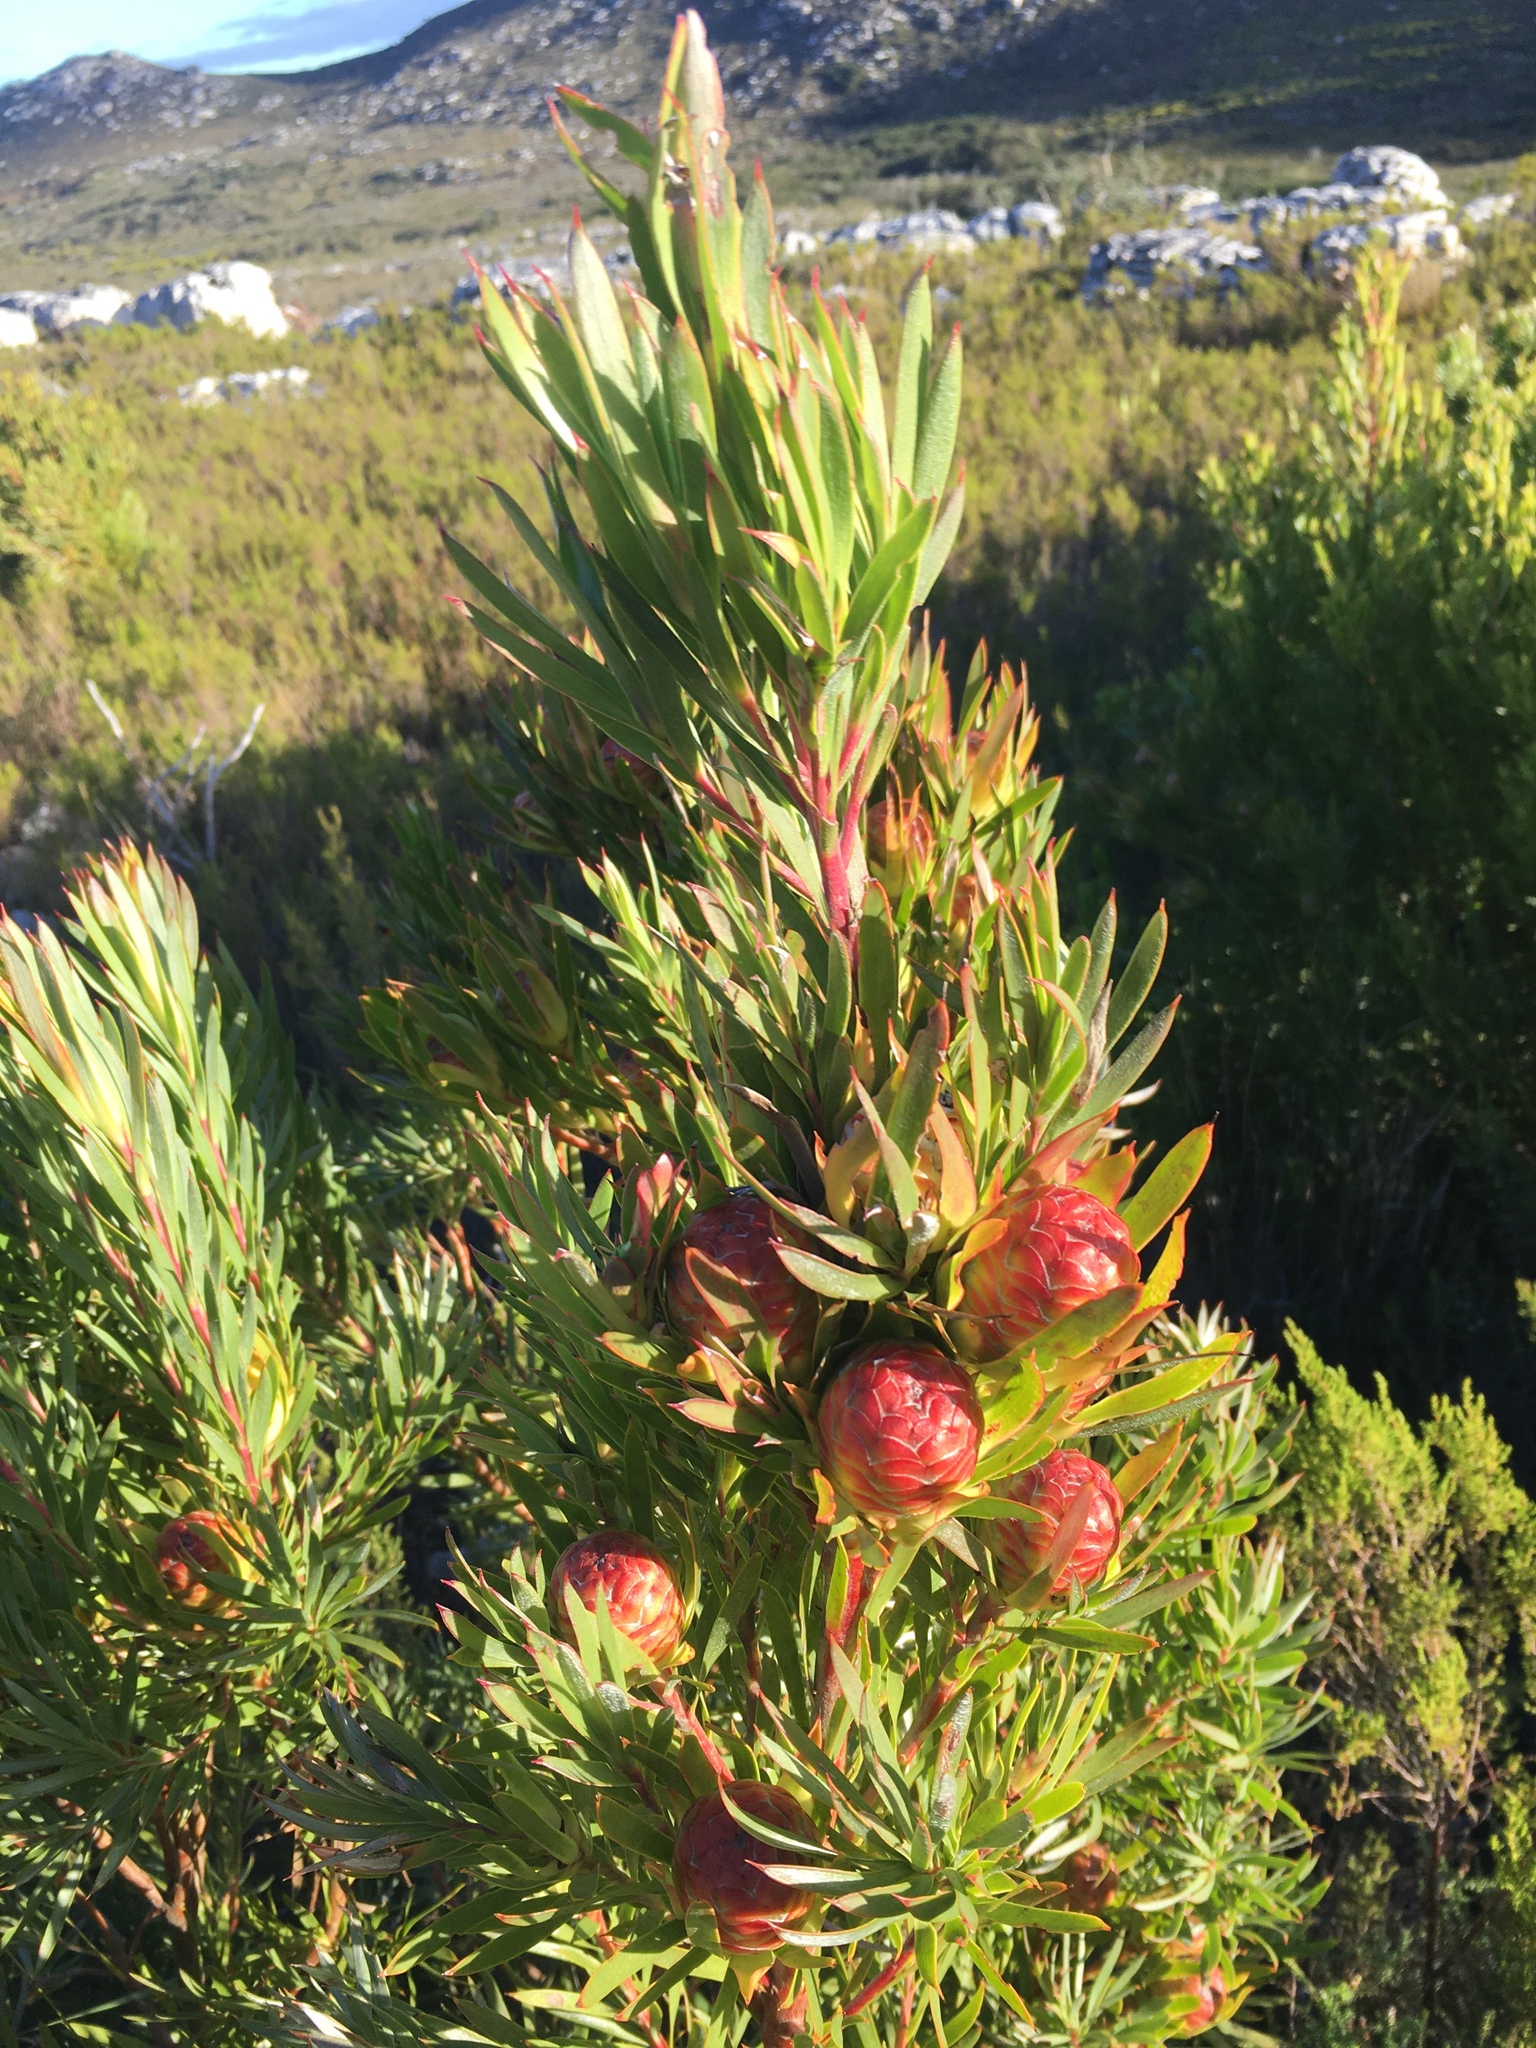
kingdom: Plantae
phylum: Tracheophyta
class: Magnoliopsida
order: Proteales
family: Proteaceae
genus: Leucadendron
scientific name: Leucadendron xanthoconus
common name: Sickle-leaf conebush
